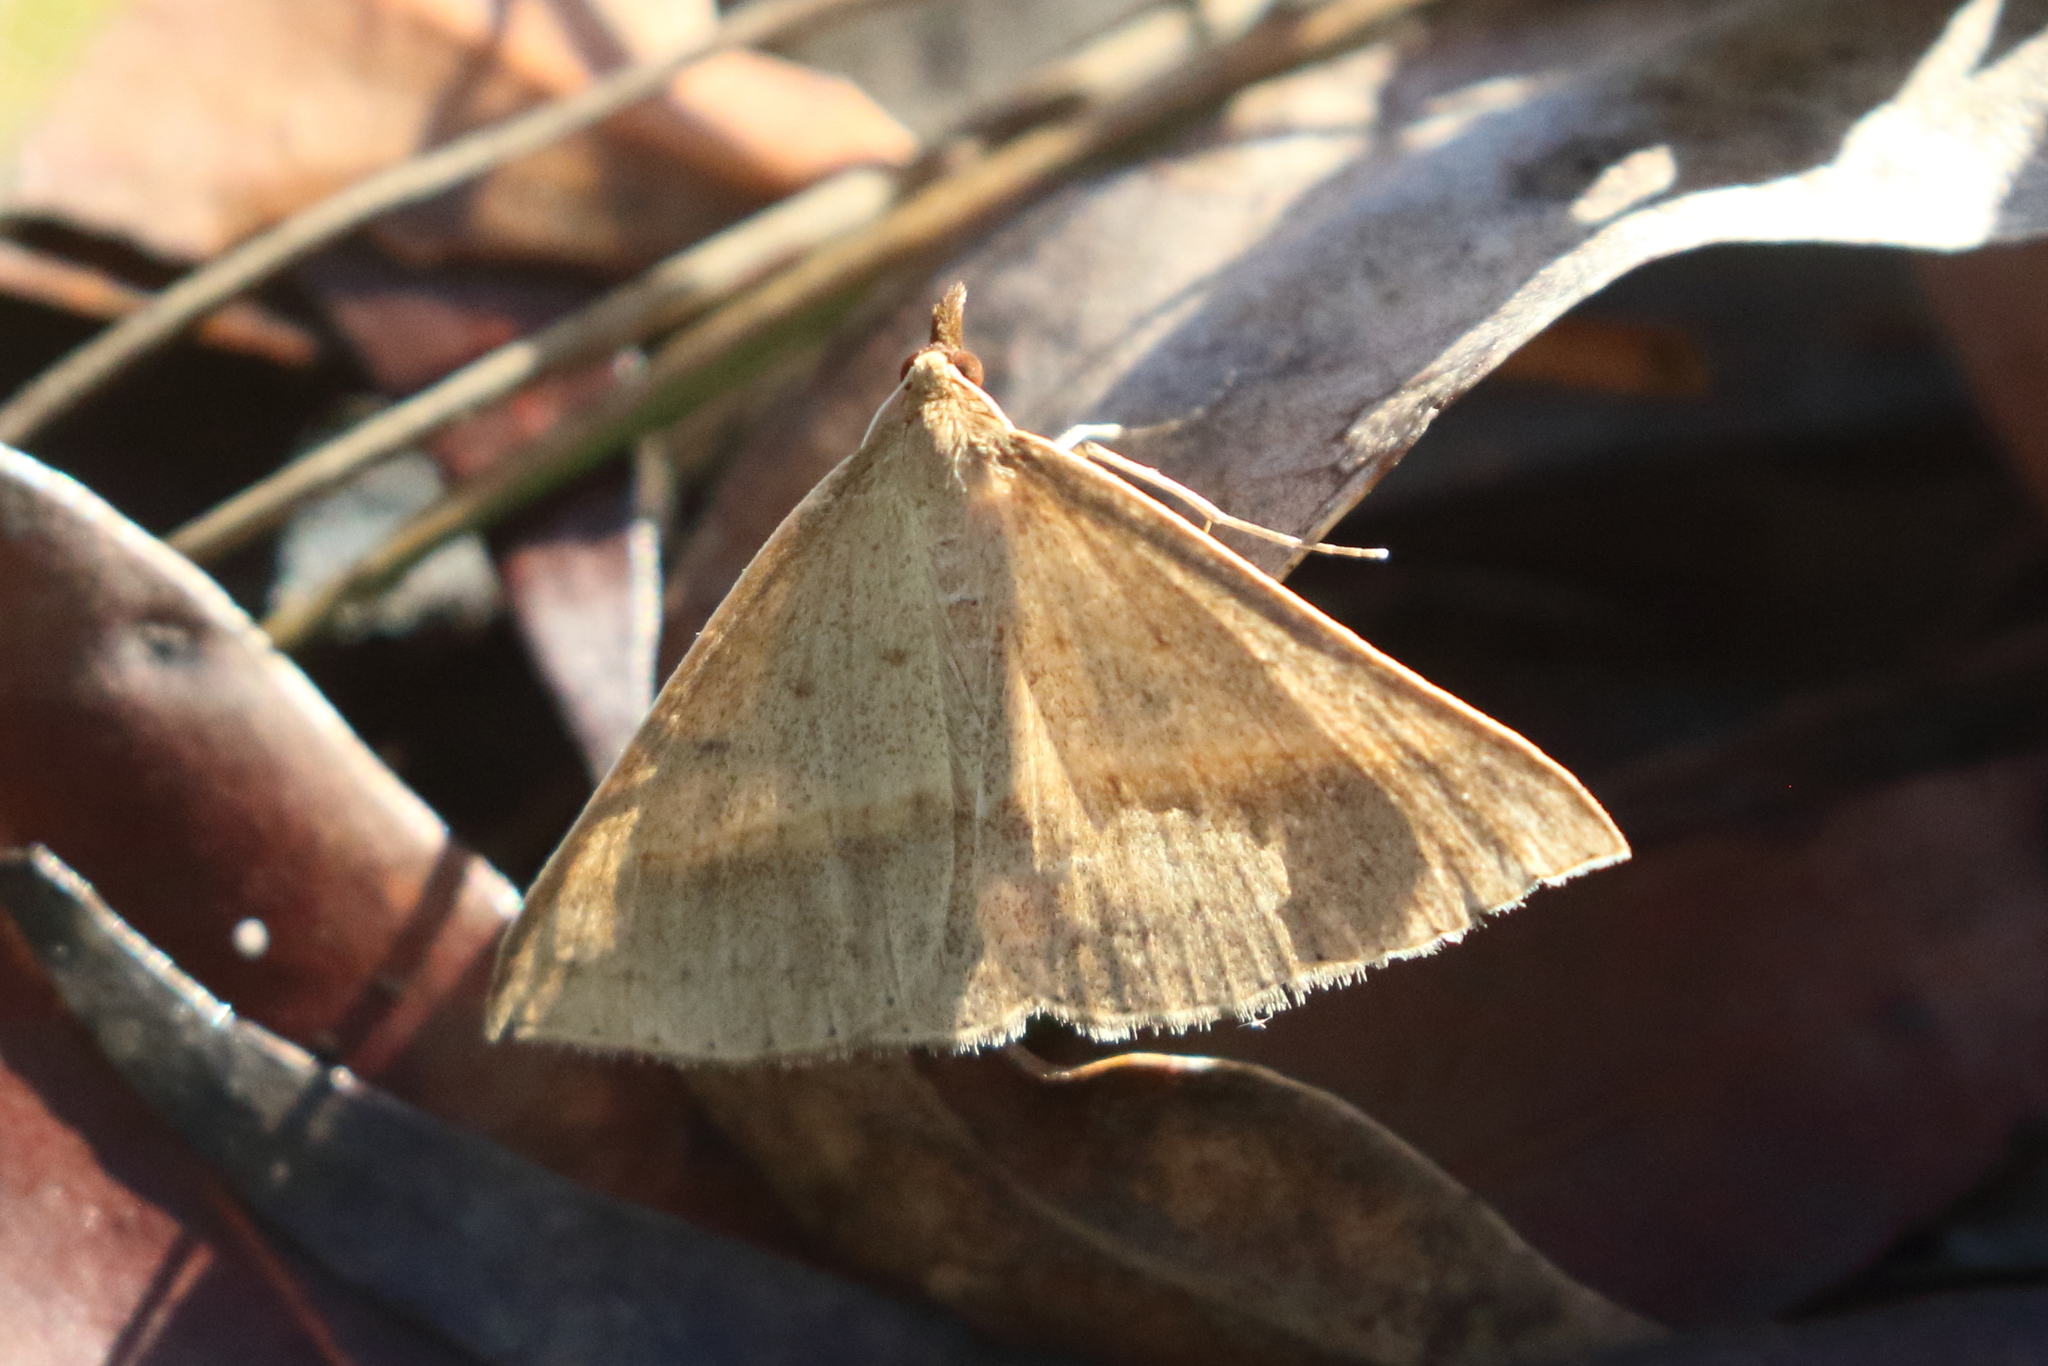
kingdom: Animalia
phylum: Arthropoda
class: Insecta
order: Lepidoptera
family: Geometridae
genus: Epidesmia
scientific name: Epidesmia tryxaria
